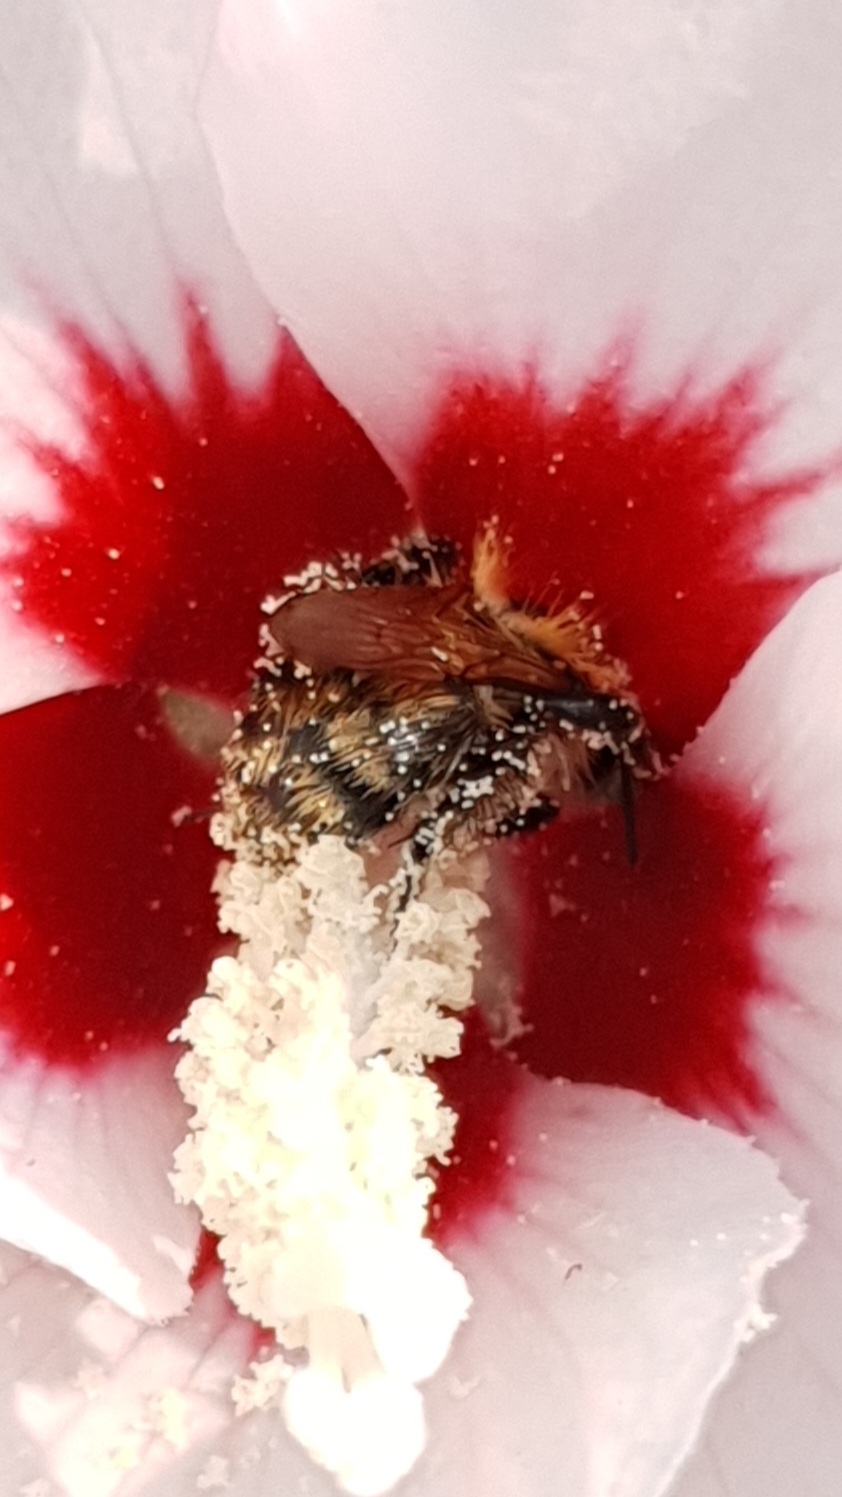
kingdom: Animalia
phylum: Arthropoda
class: Insecta
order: Hymenoptera
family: Apidae
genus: Bombus
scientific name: Bombus pascuorum
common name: Common carder bee
